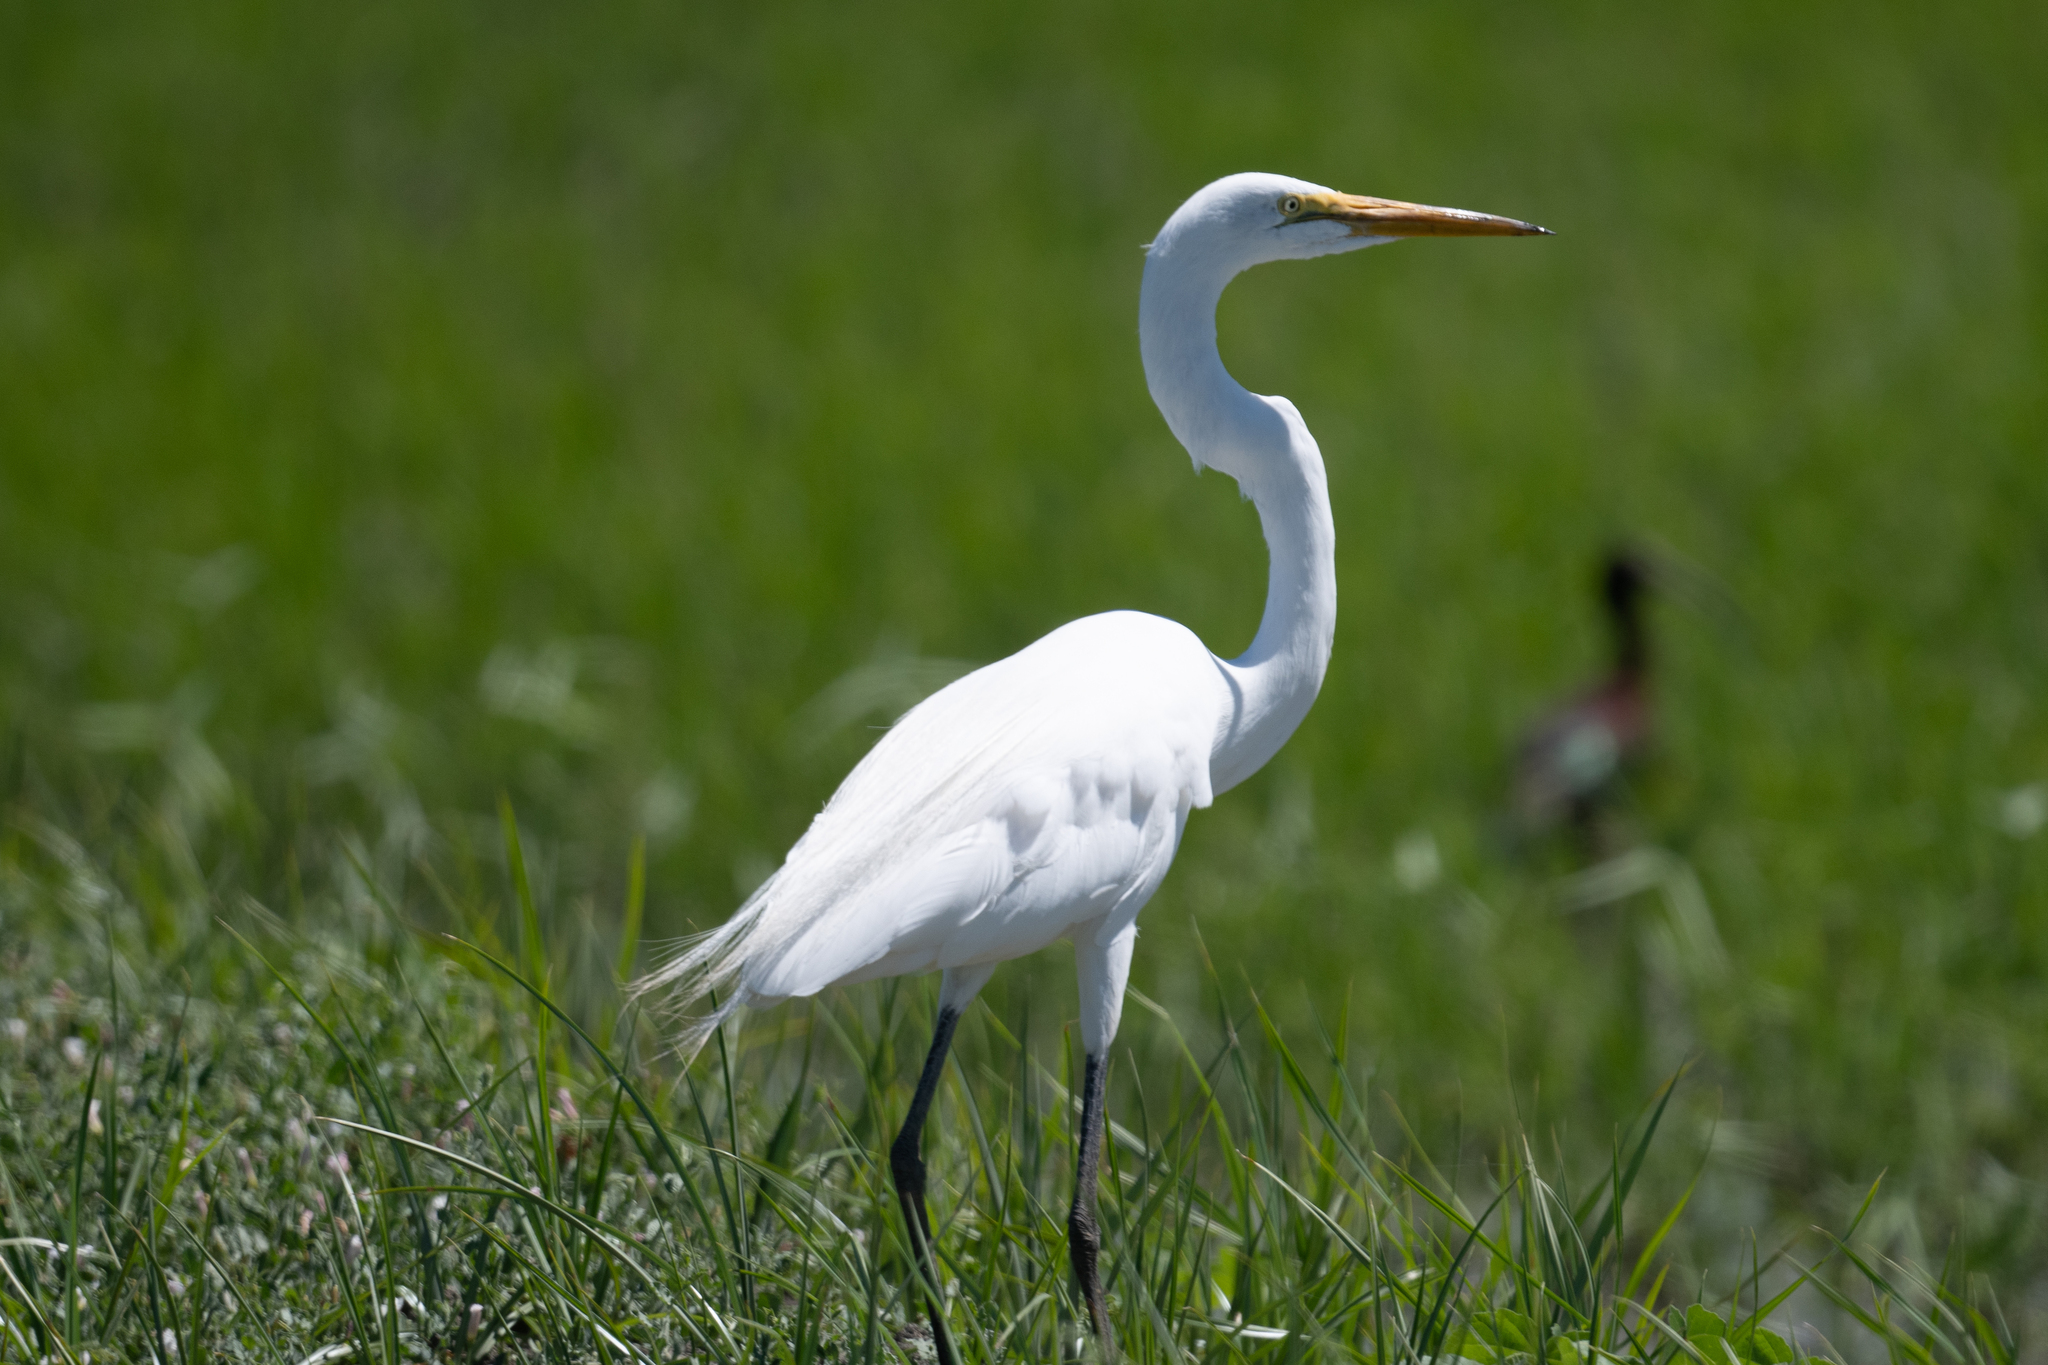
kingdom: Animalia
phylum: Chordata
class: Aves
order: Pelecaniformes
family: Ardeidae
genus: Ardea
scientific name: Ardea alba
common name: Great egret
